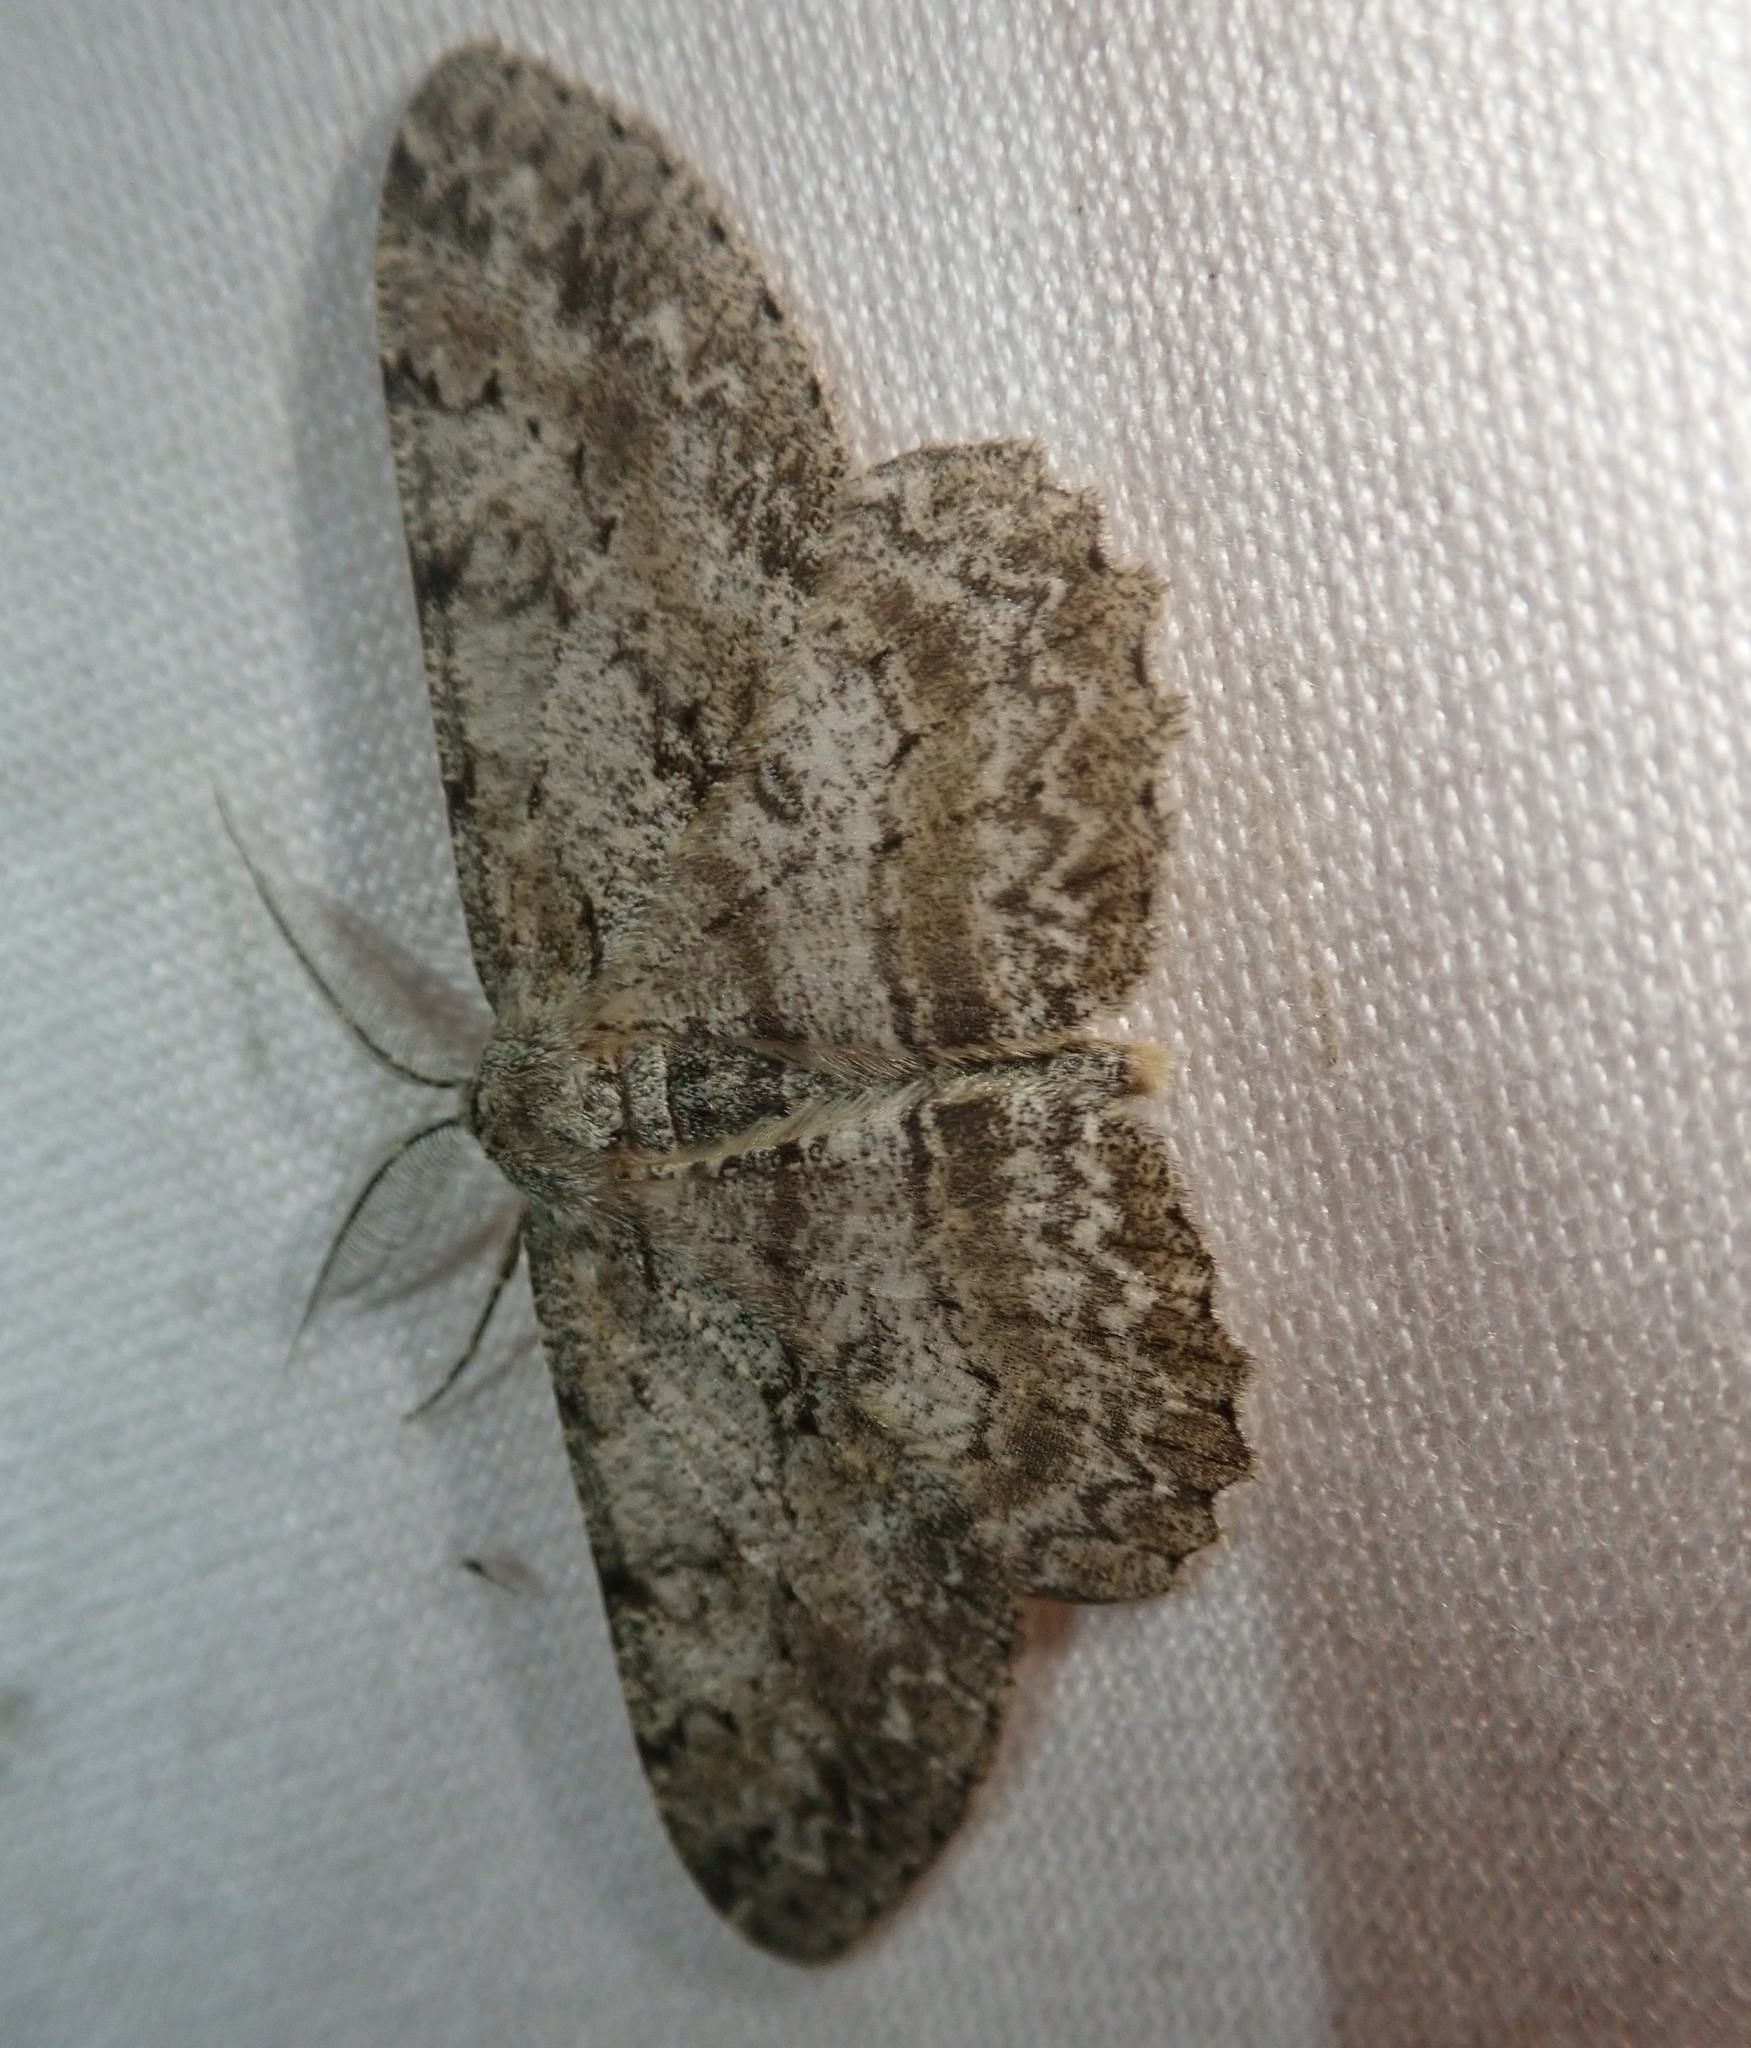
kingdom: Animalia
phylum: Arthropoda
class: Insecta
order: Lepidoptera
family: Geometridae
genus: Hypomecis
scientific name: Hypomecis punctinalis
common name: Pale oak beauty
